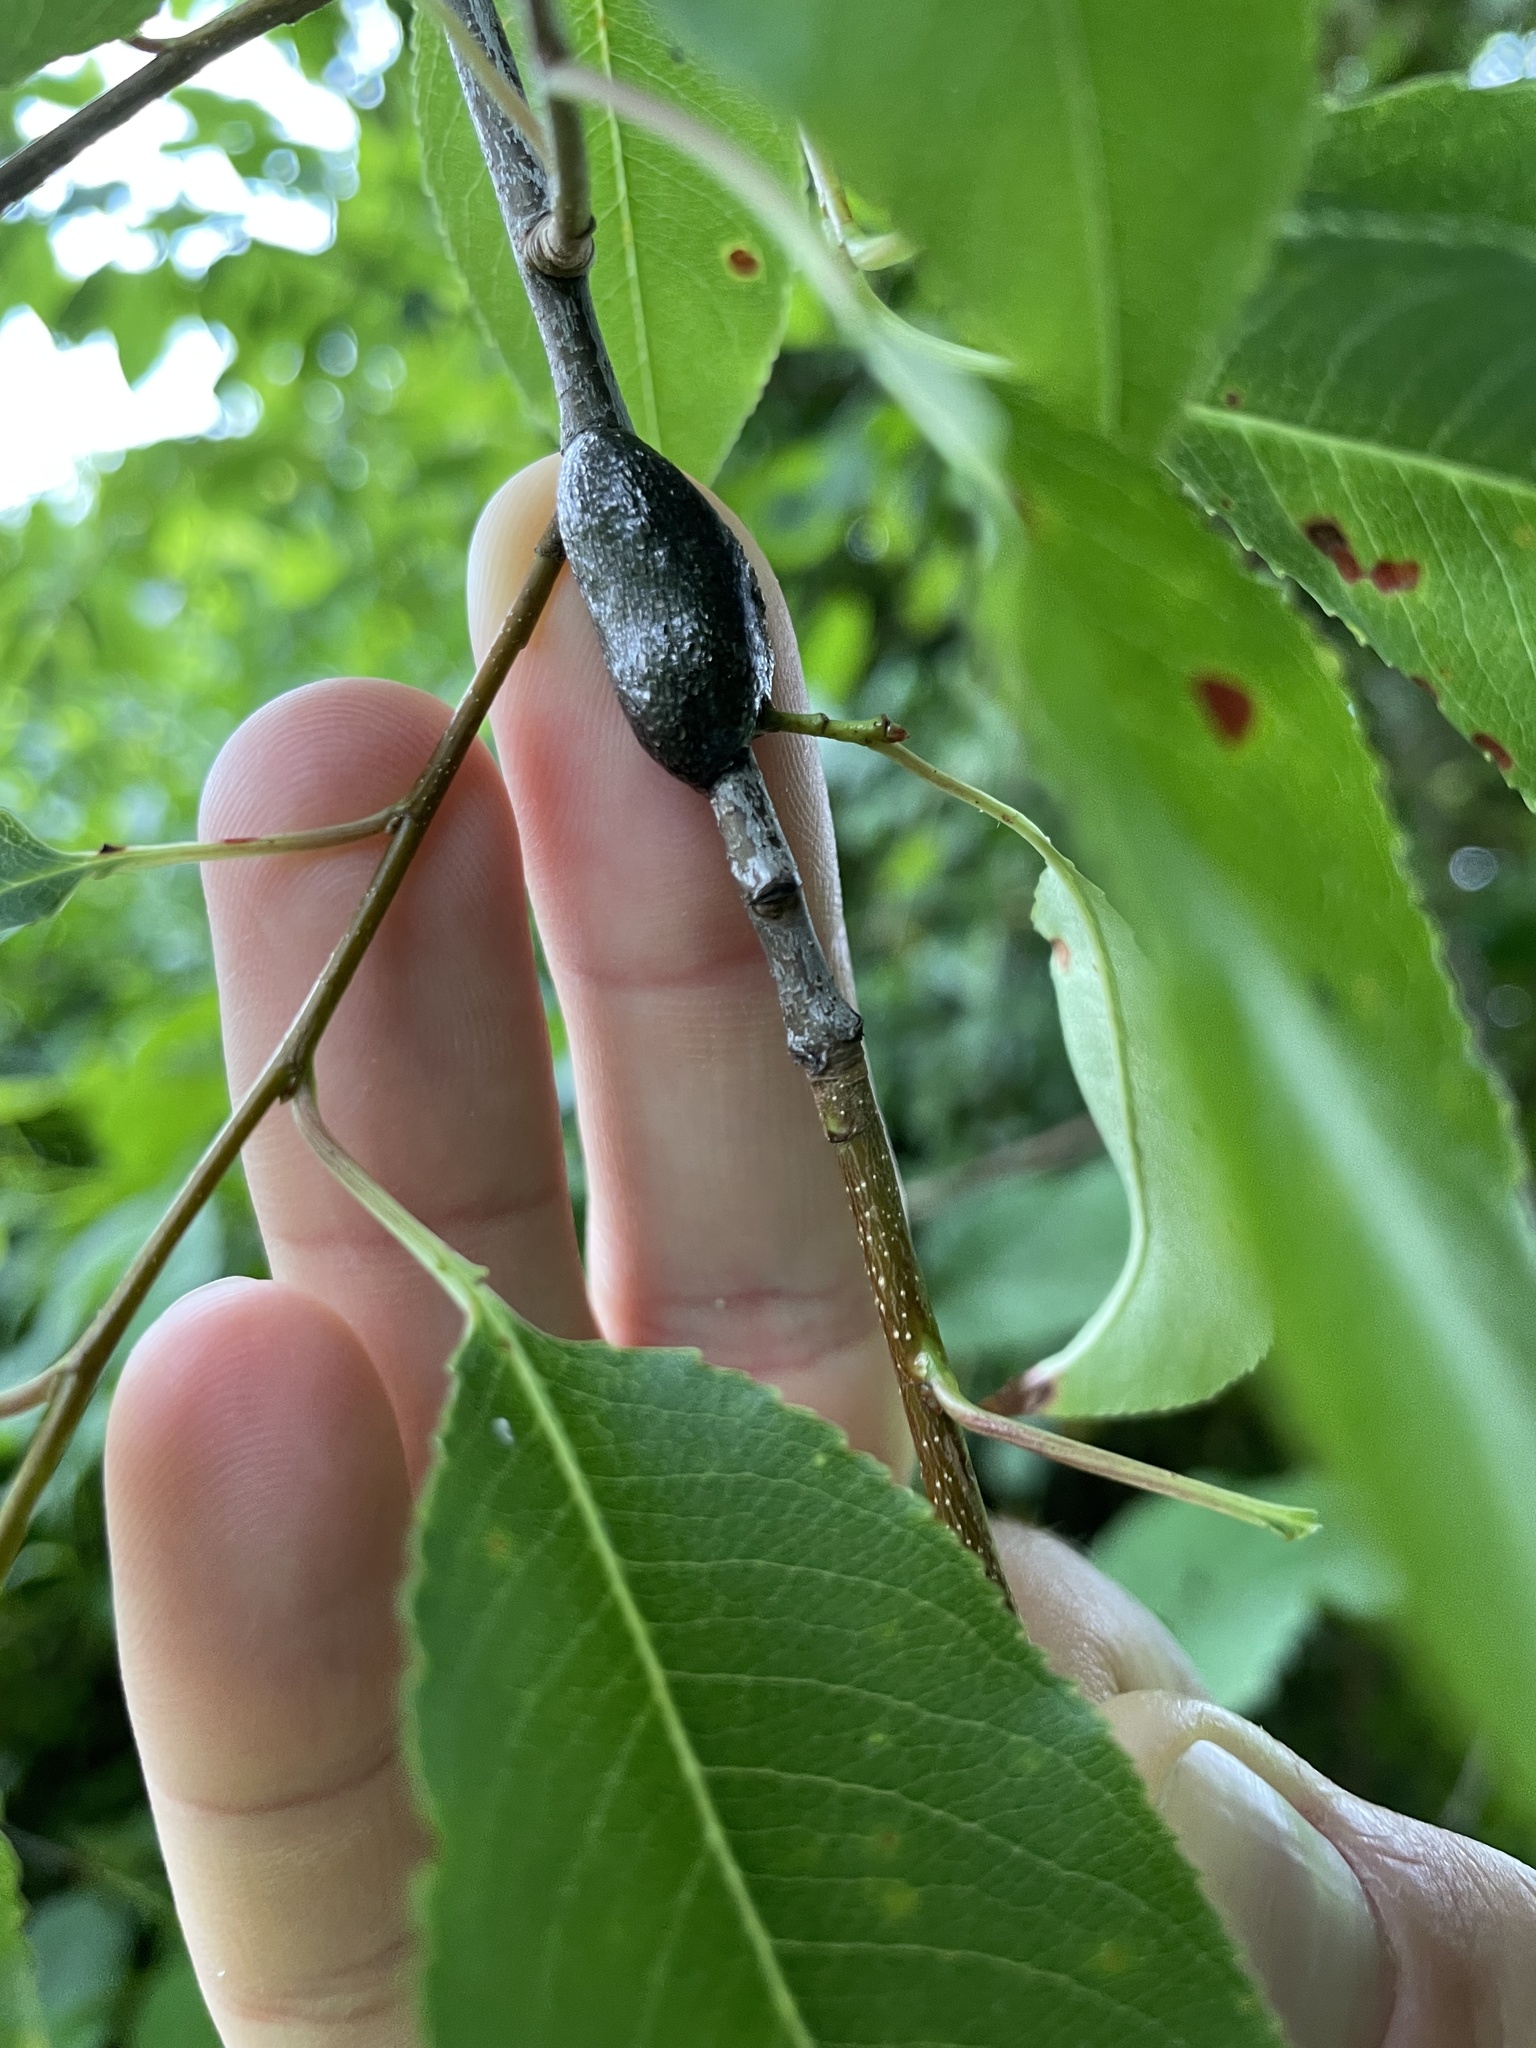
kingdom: Fungi
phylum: Ascomycota
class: Dothideomycetes
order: Venturiales
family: Venturiaceae
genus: Apiosporina
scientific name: Apiosporina morbosa
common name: Black knot
